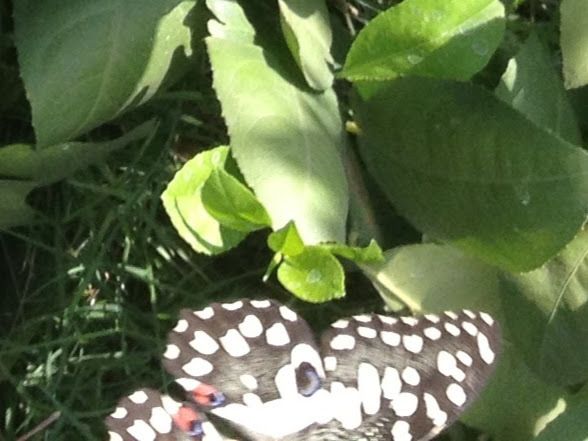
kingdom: Animalia
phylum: Arthropoda
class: Insecta
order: Lepidoptera
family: Papilionidae
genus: Papilio
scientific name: Papilio demoleus
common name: Lime butterfly
